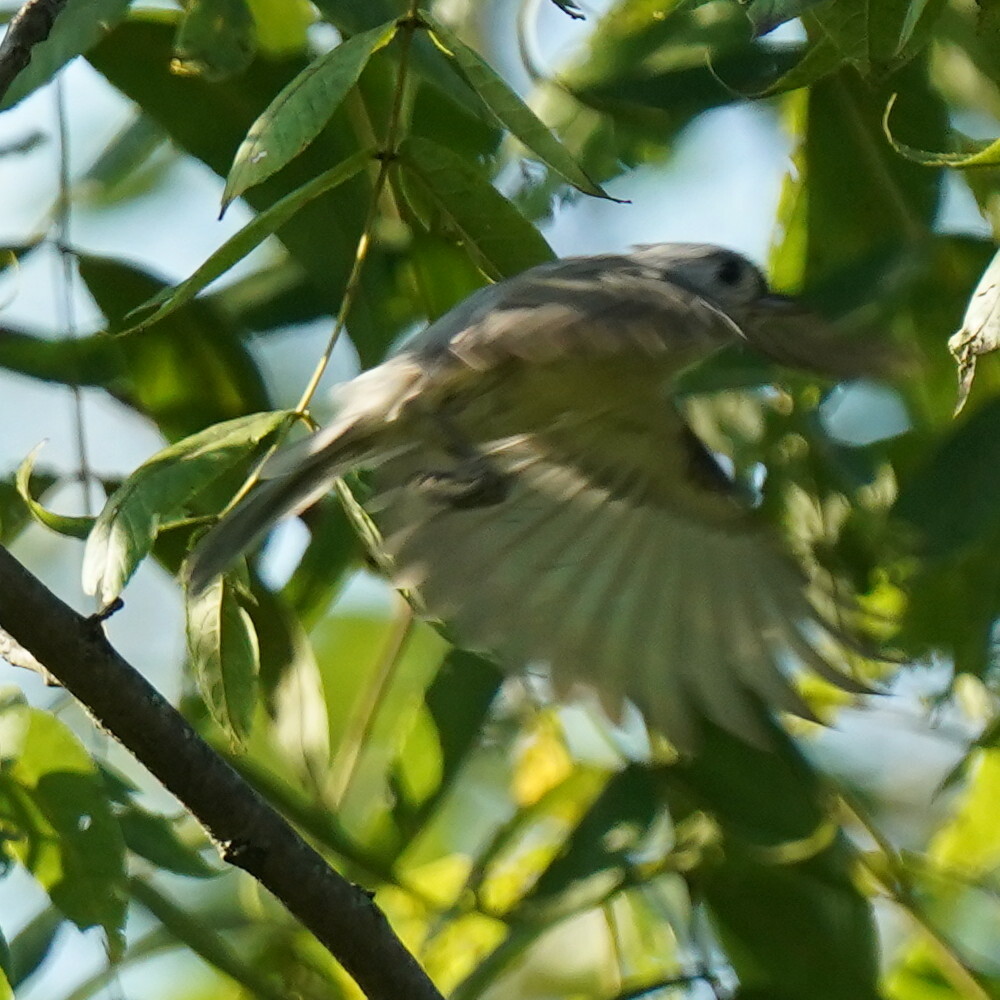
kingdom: Animalia
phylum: Chordata
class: Aves
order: Passeriformes
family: Paridae
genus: Baeolophus
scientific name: Baeolophus bicolor
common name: Tufted titmouse
